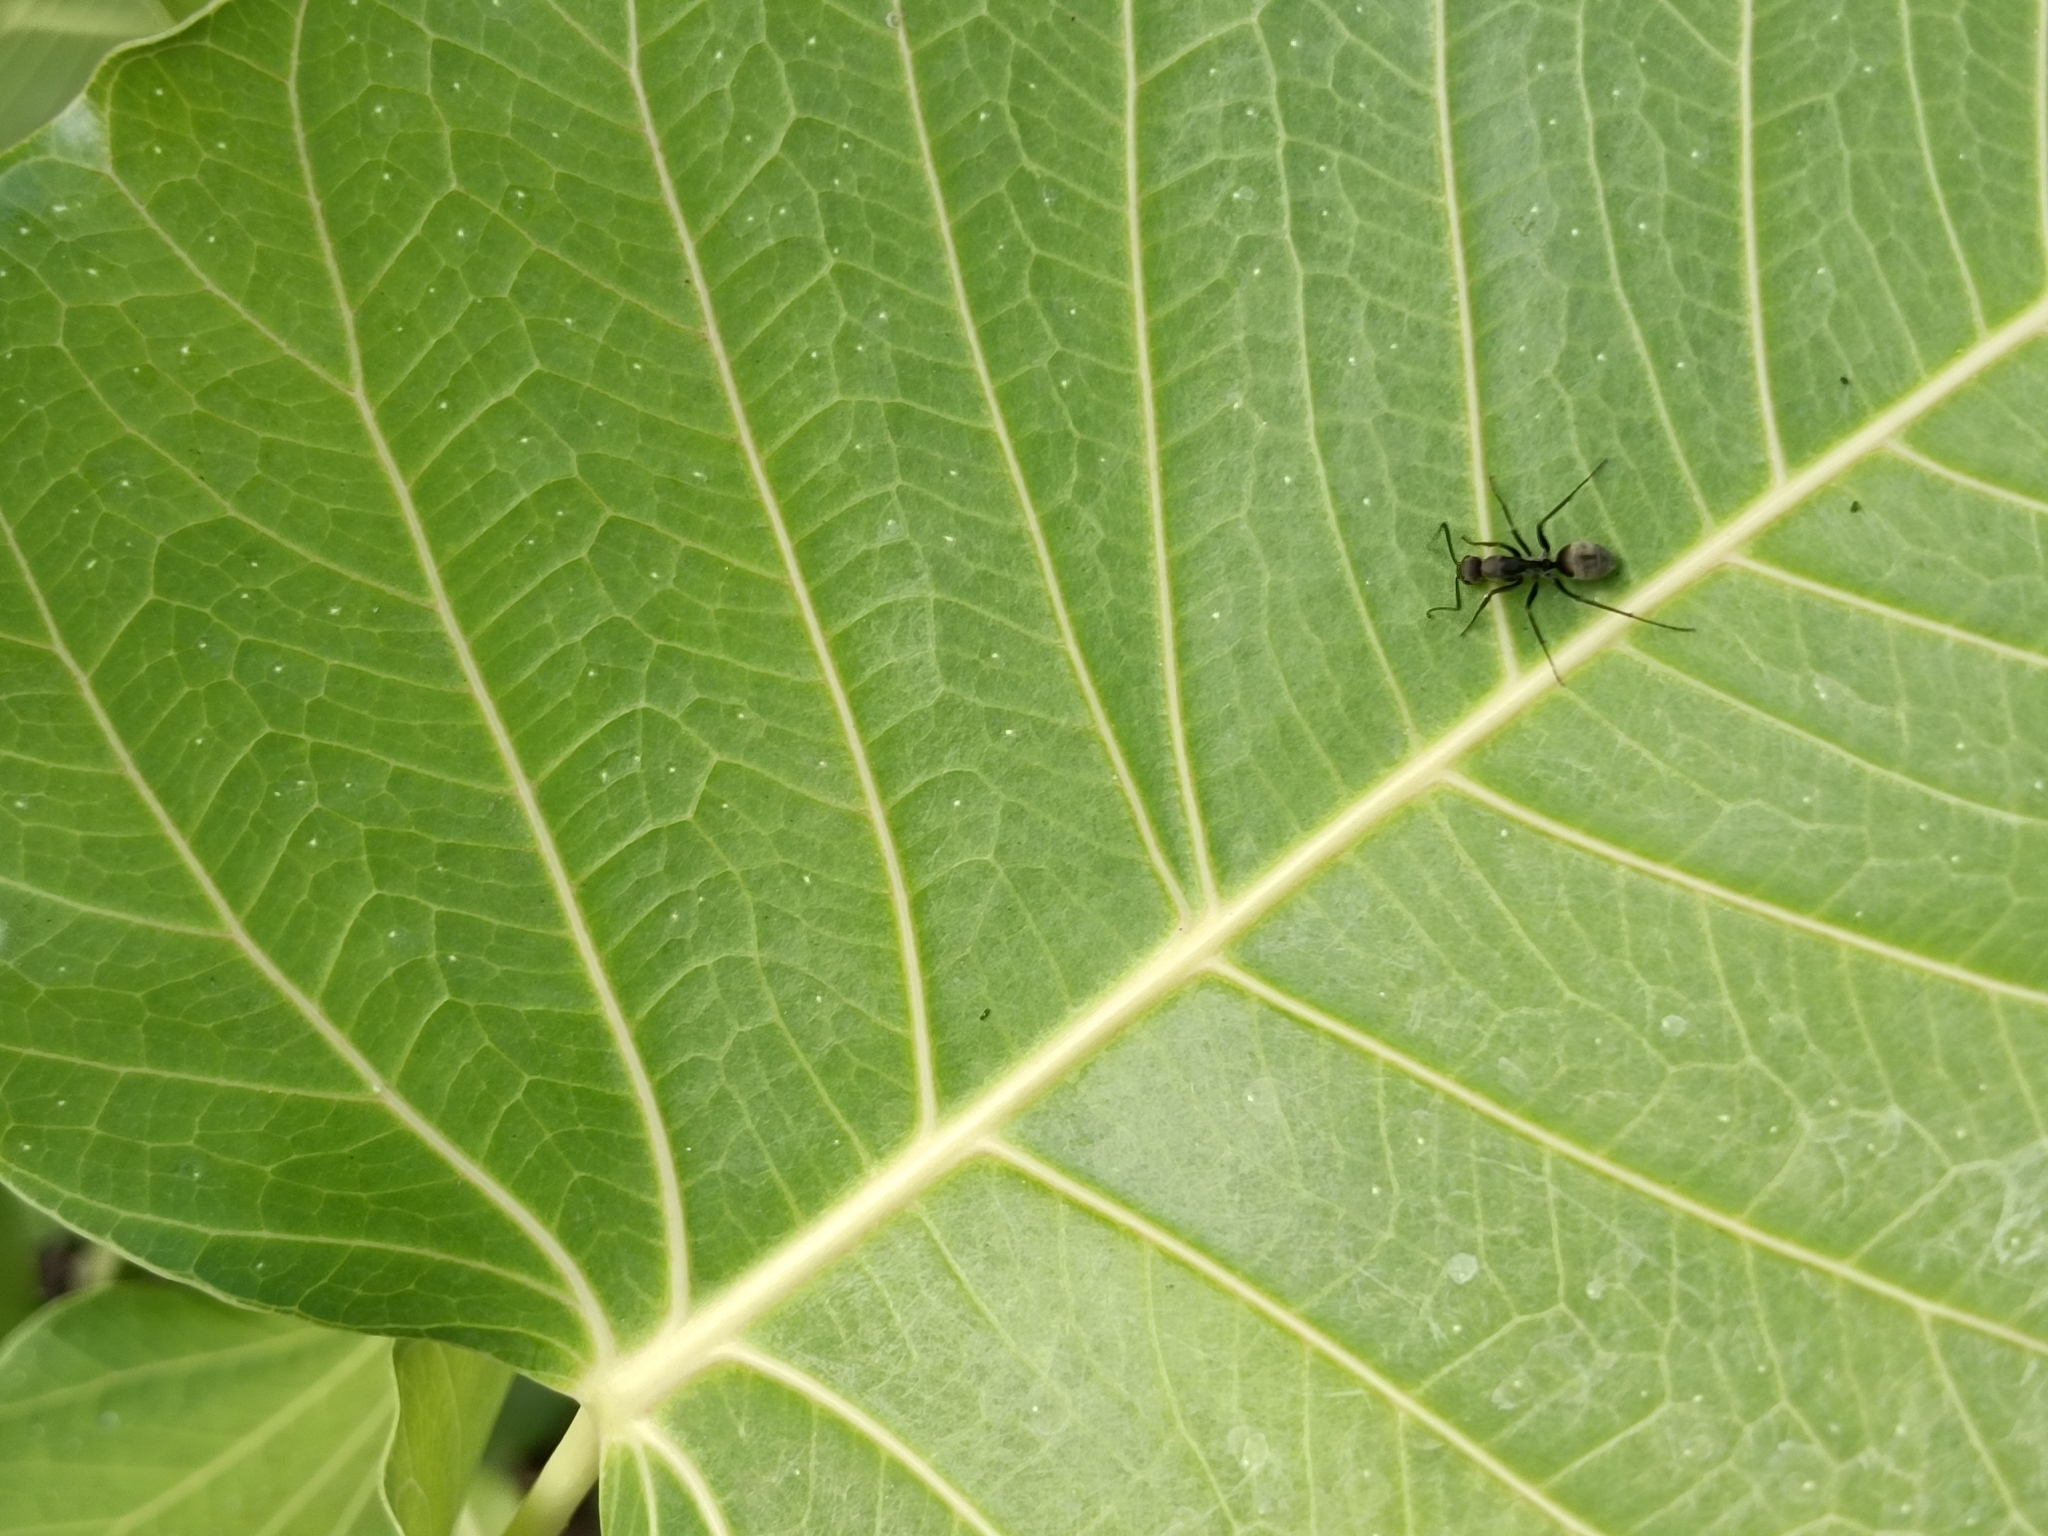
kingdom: Animalia
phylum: Arthropoda
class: Insecta
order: Hymenoptera
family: Formicidae
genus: Camponotus
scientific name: Camponotus parius
